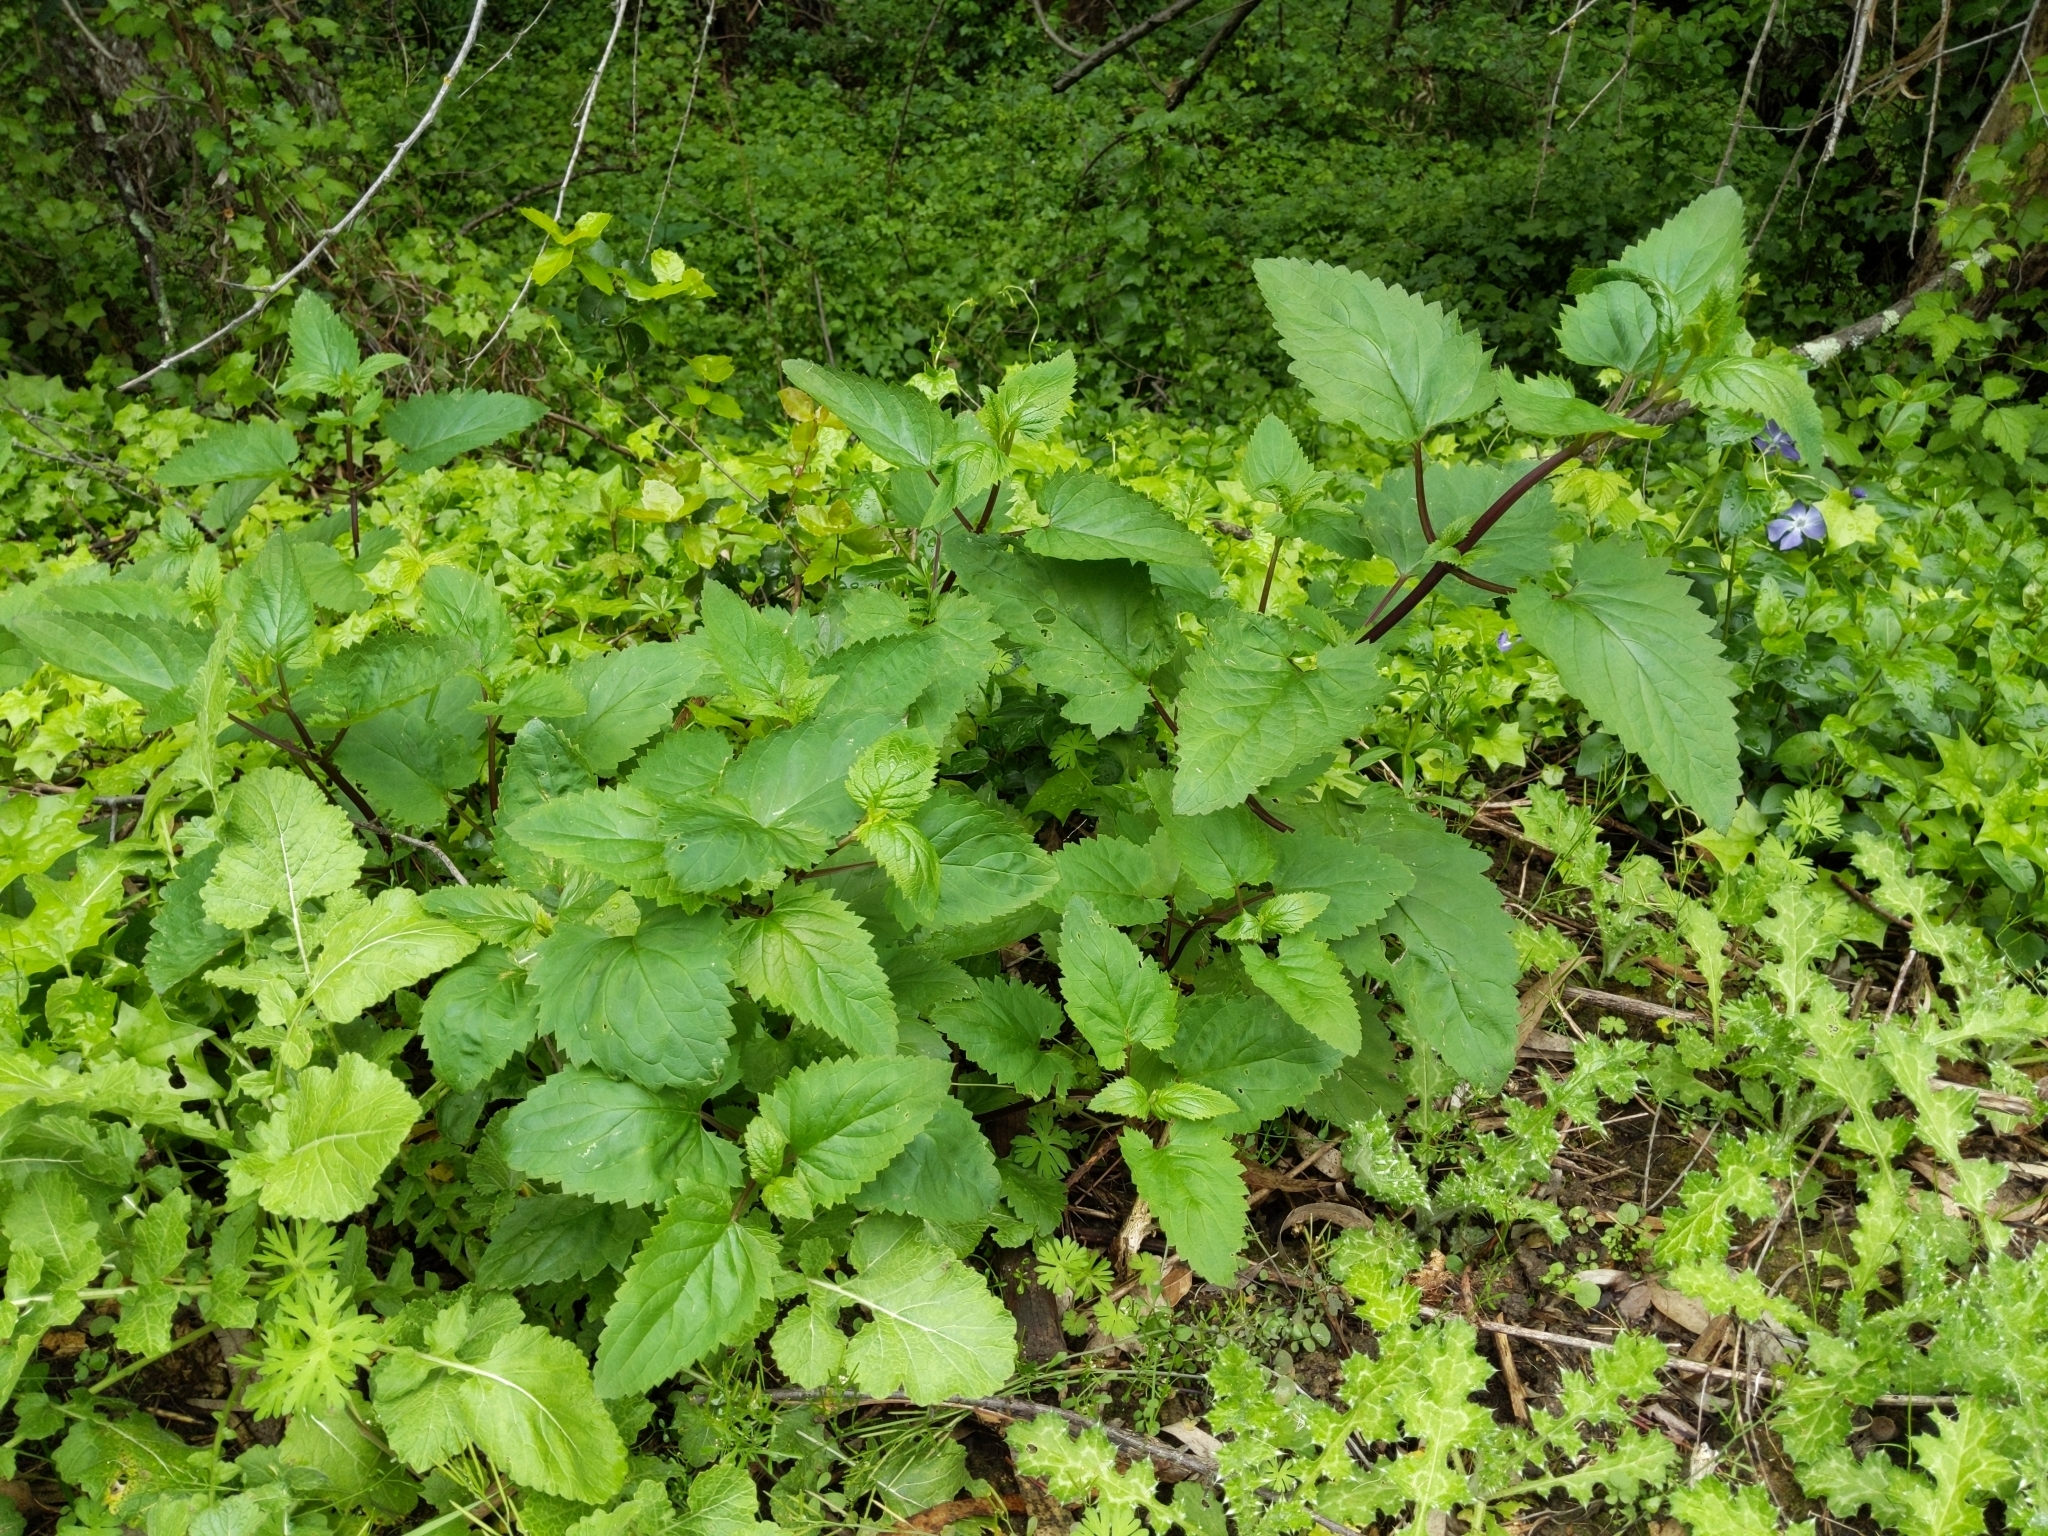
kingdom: Plantae
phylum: Tracheophyta
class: Magnoliopsida
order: Lamiales
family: Scrophulariaceae
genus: Scrophularia
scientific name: Scrophularia californica
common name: California figwort
